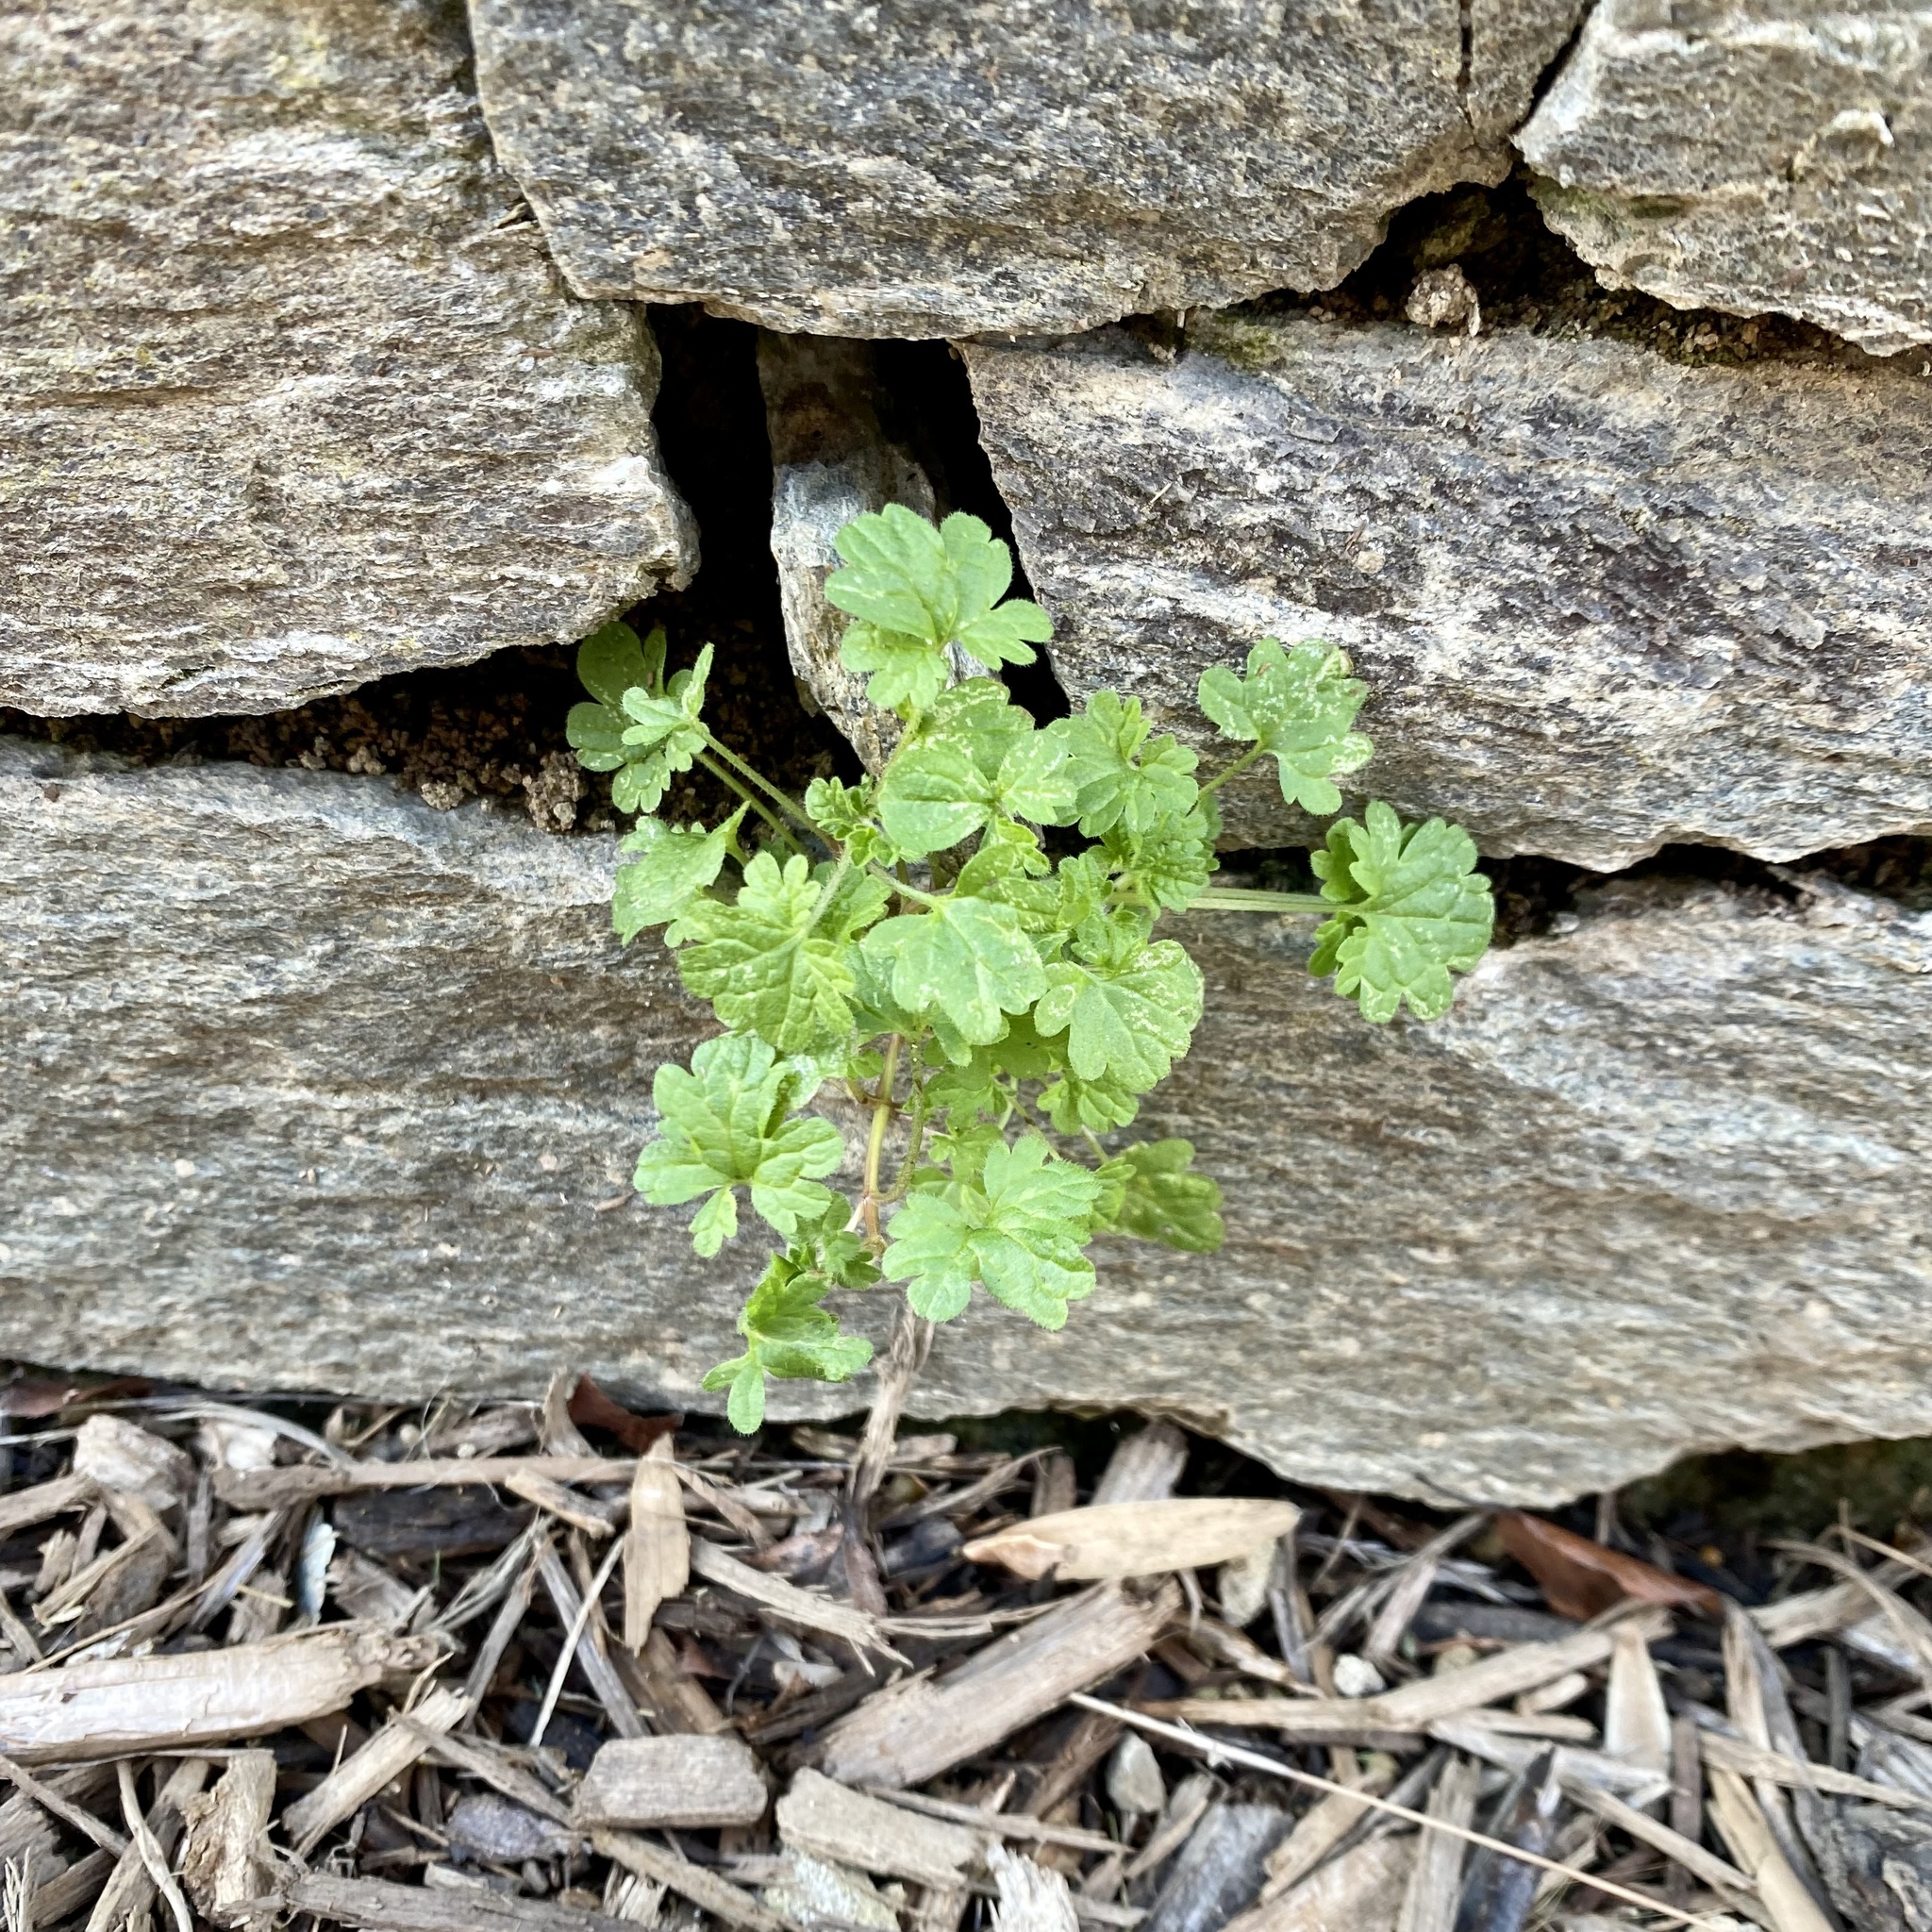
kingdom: Plantae
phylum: Tracheophyta
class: Magnoliopsida
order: Lamiales
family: Lamiaceae
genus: Lamium
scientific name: Lamium amplexicaule
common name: Henbit dead-nettle
